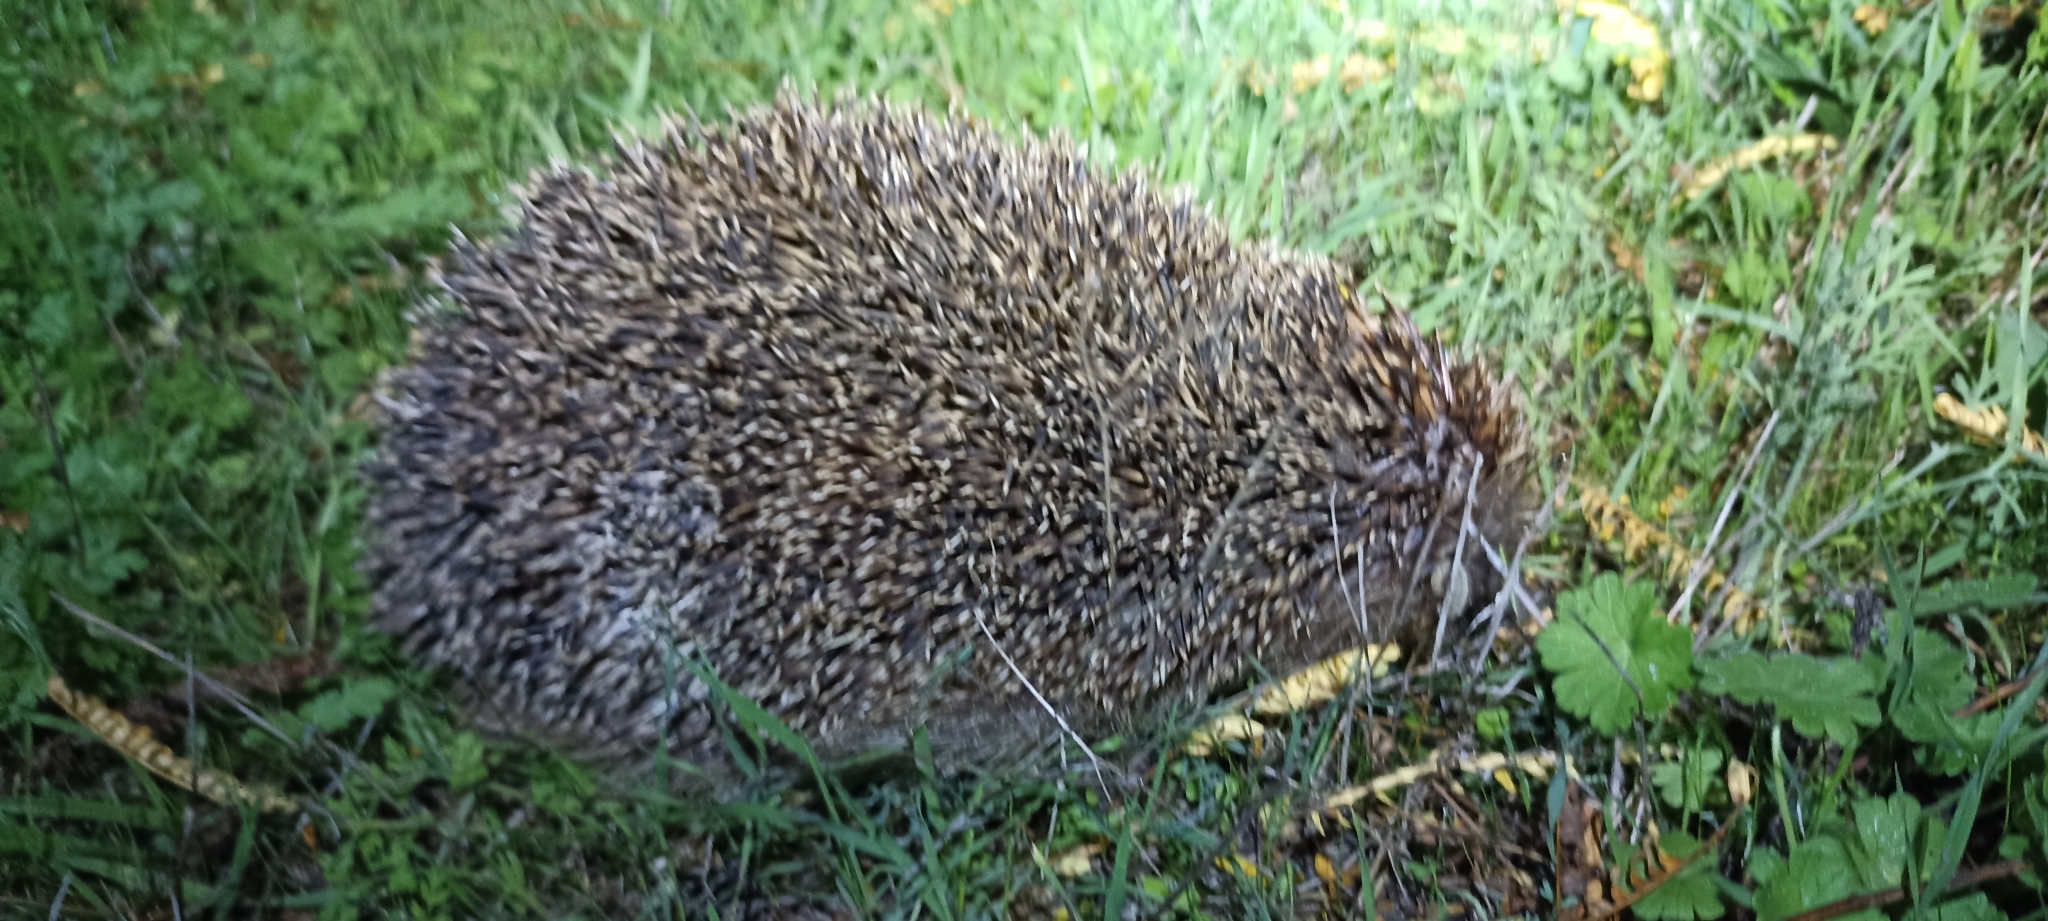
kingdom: Animalia
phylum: Chordata
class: Mammalia
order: Erinaceomorpha
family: Erinaceidae
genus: Erinaceus
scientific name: Erinaceus europaeus
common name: West european hedgehog
